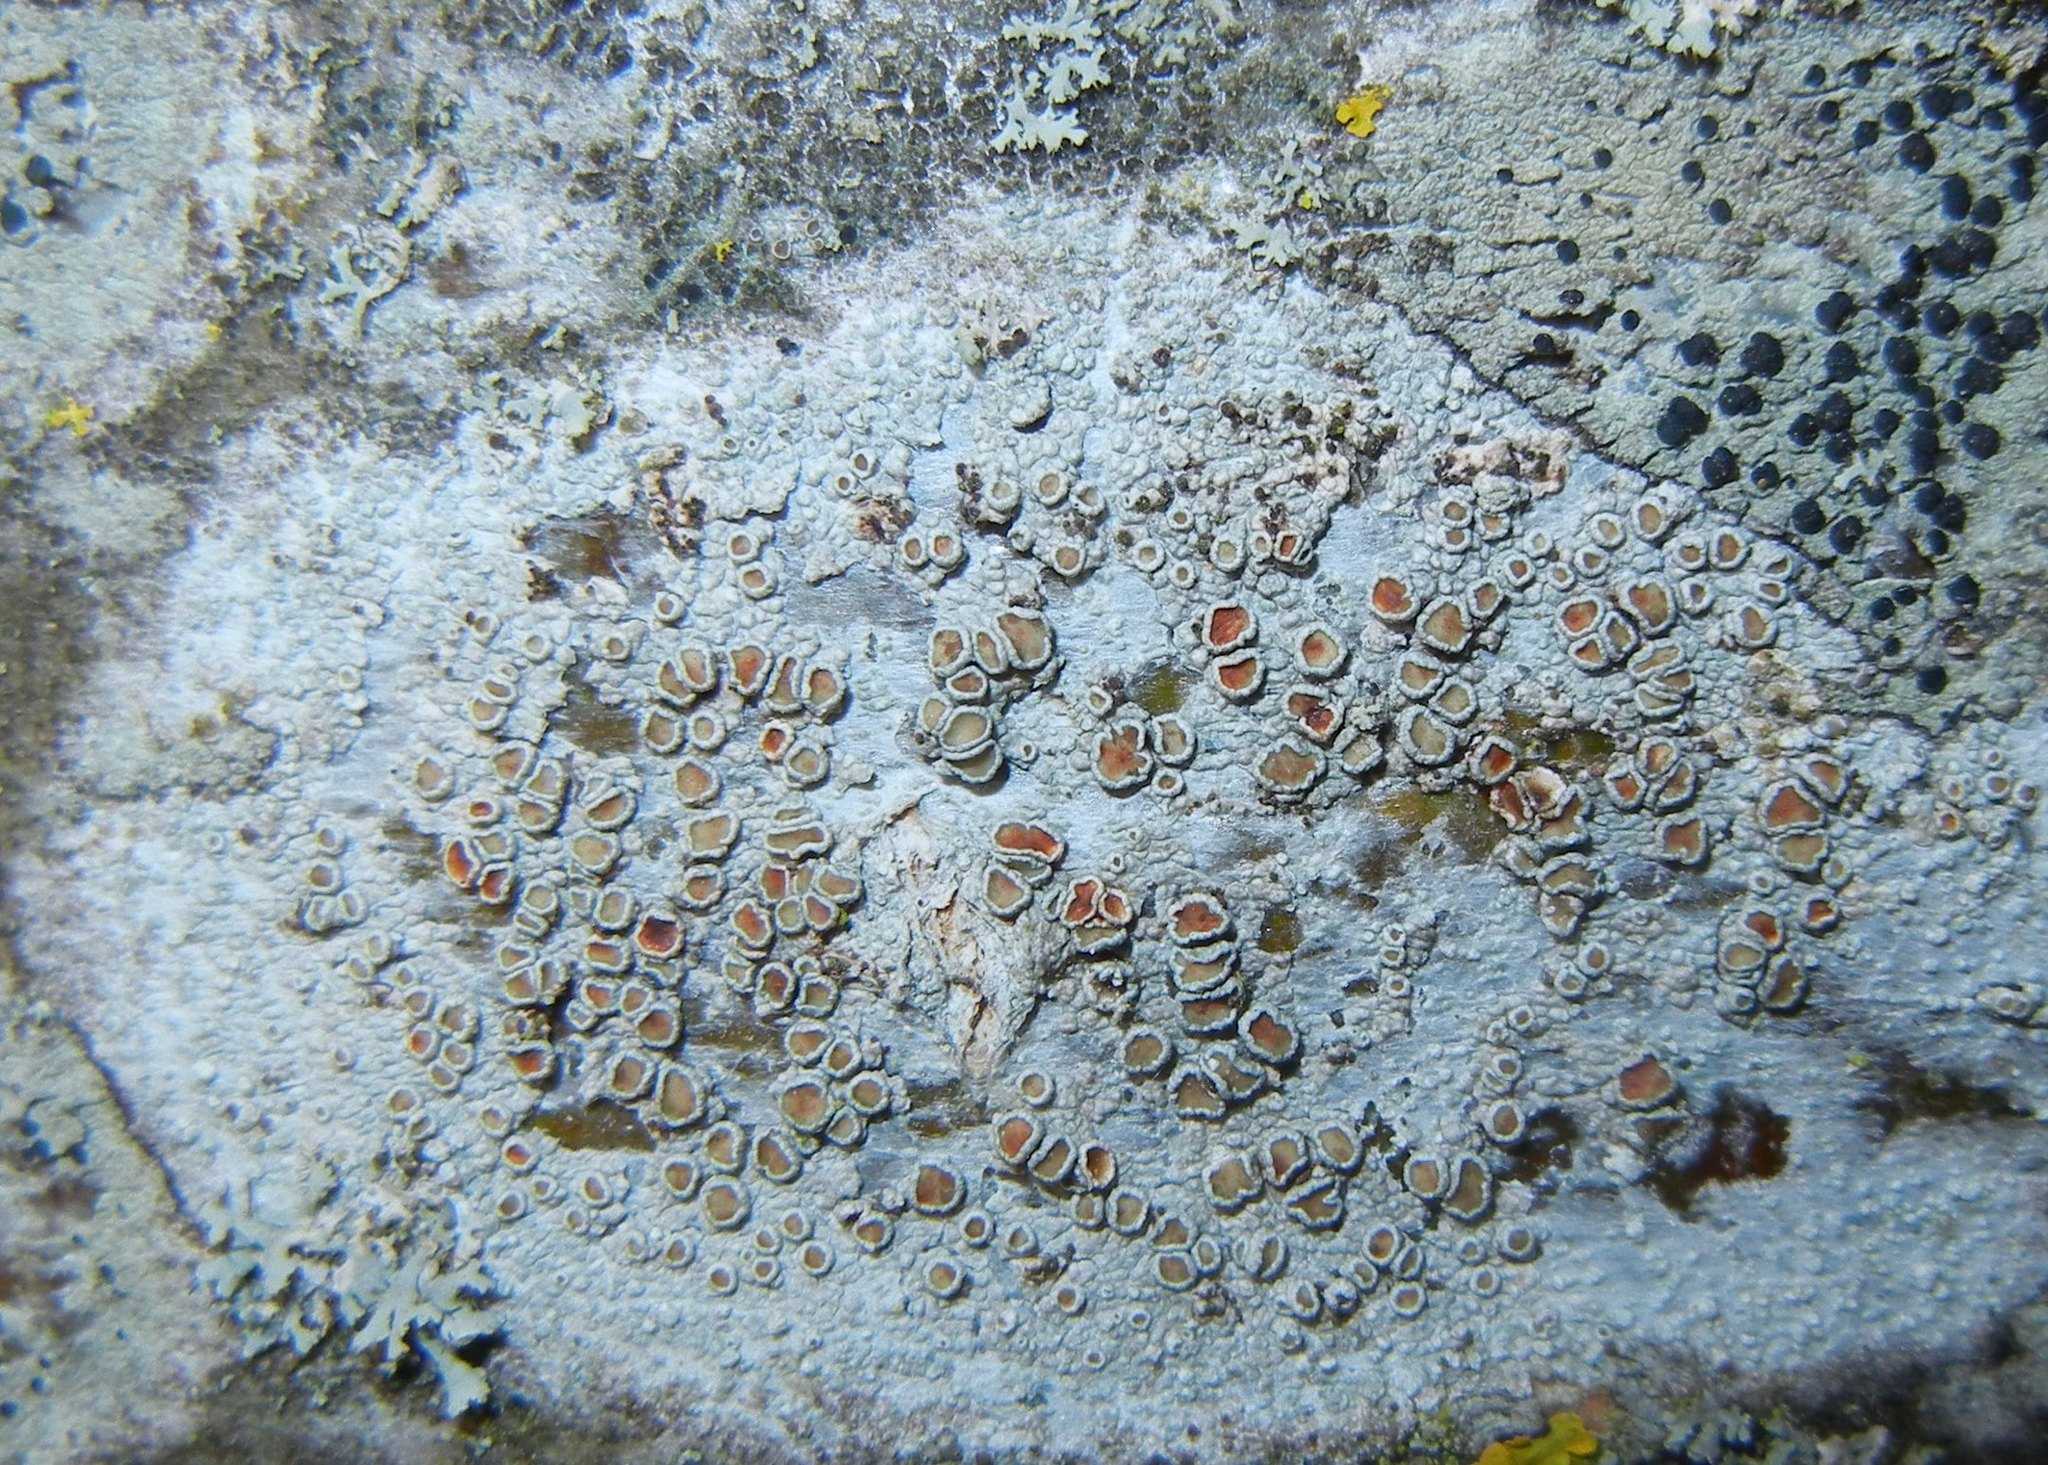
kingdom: Fungi
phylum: Ascomycota
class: Lecanoromycetes
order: Lecanorales
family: Lecanoraceae
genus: Lecanora
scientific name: Lecanora chlarotera
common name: Brown rim-lichen
